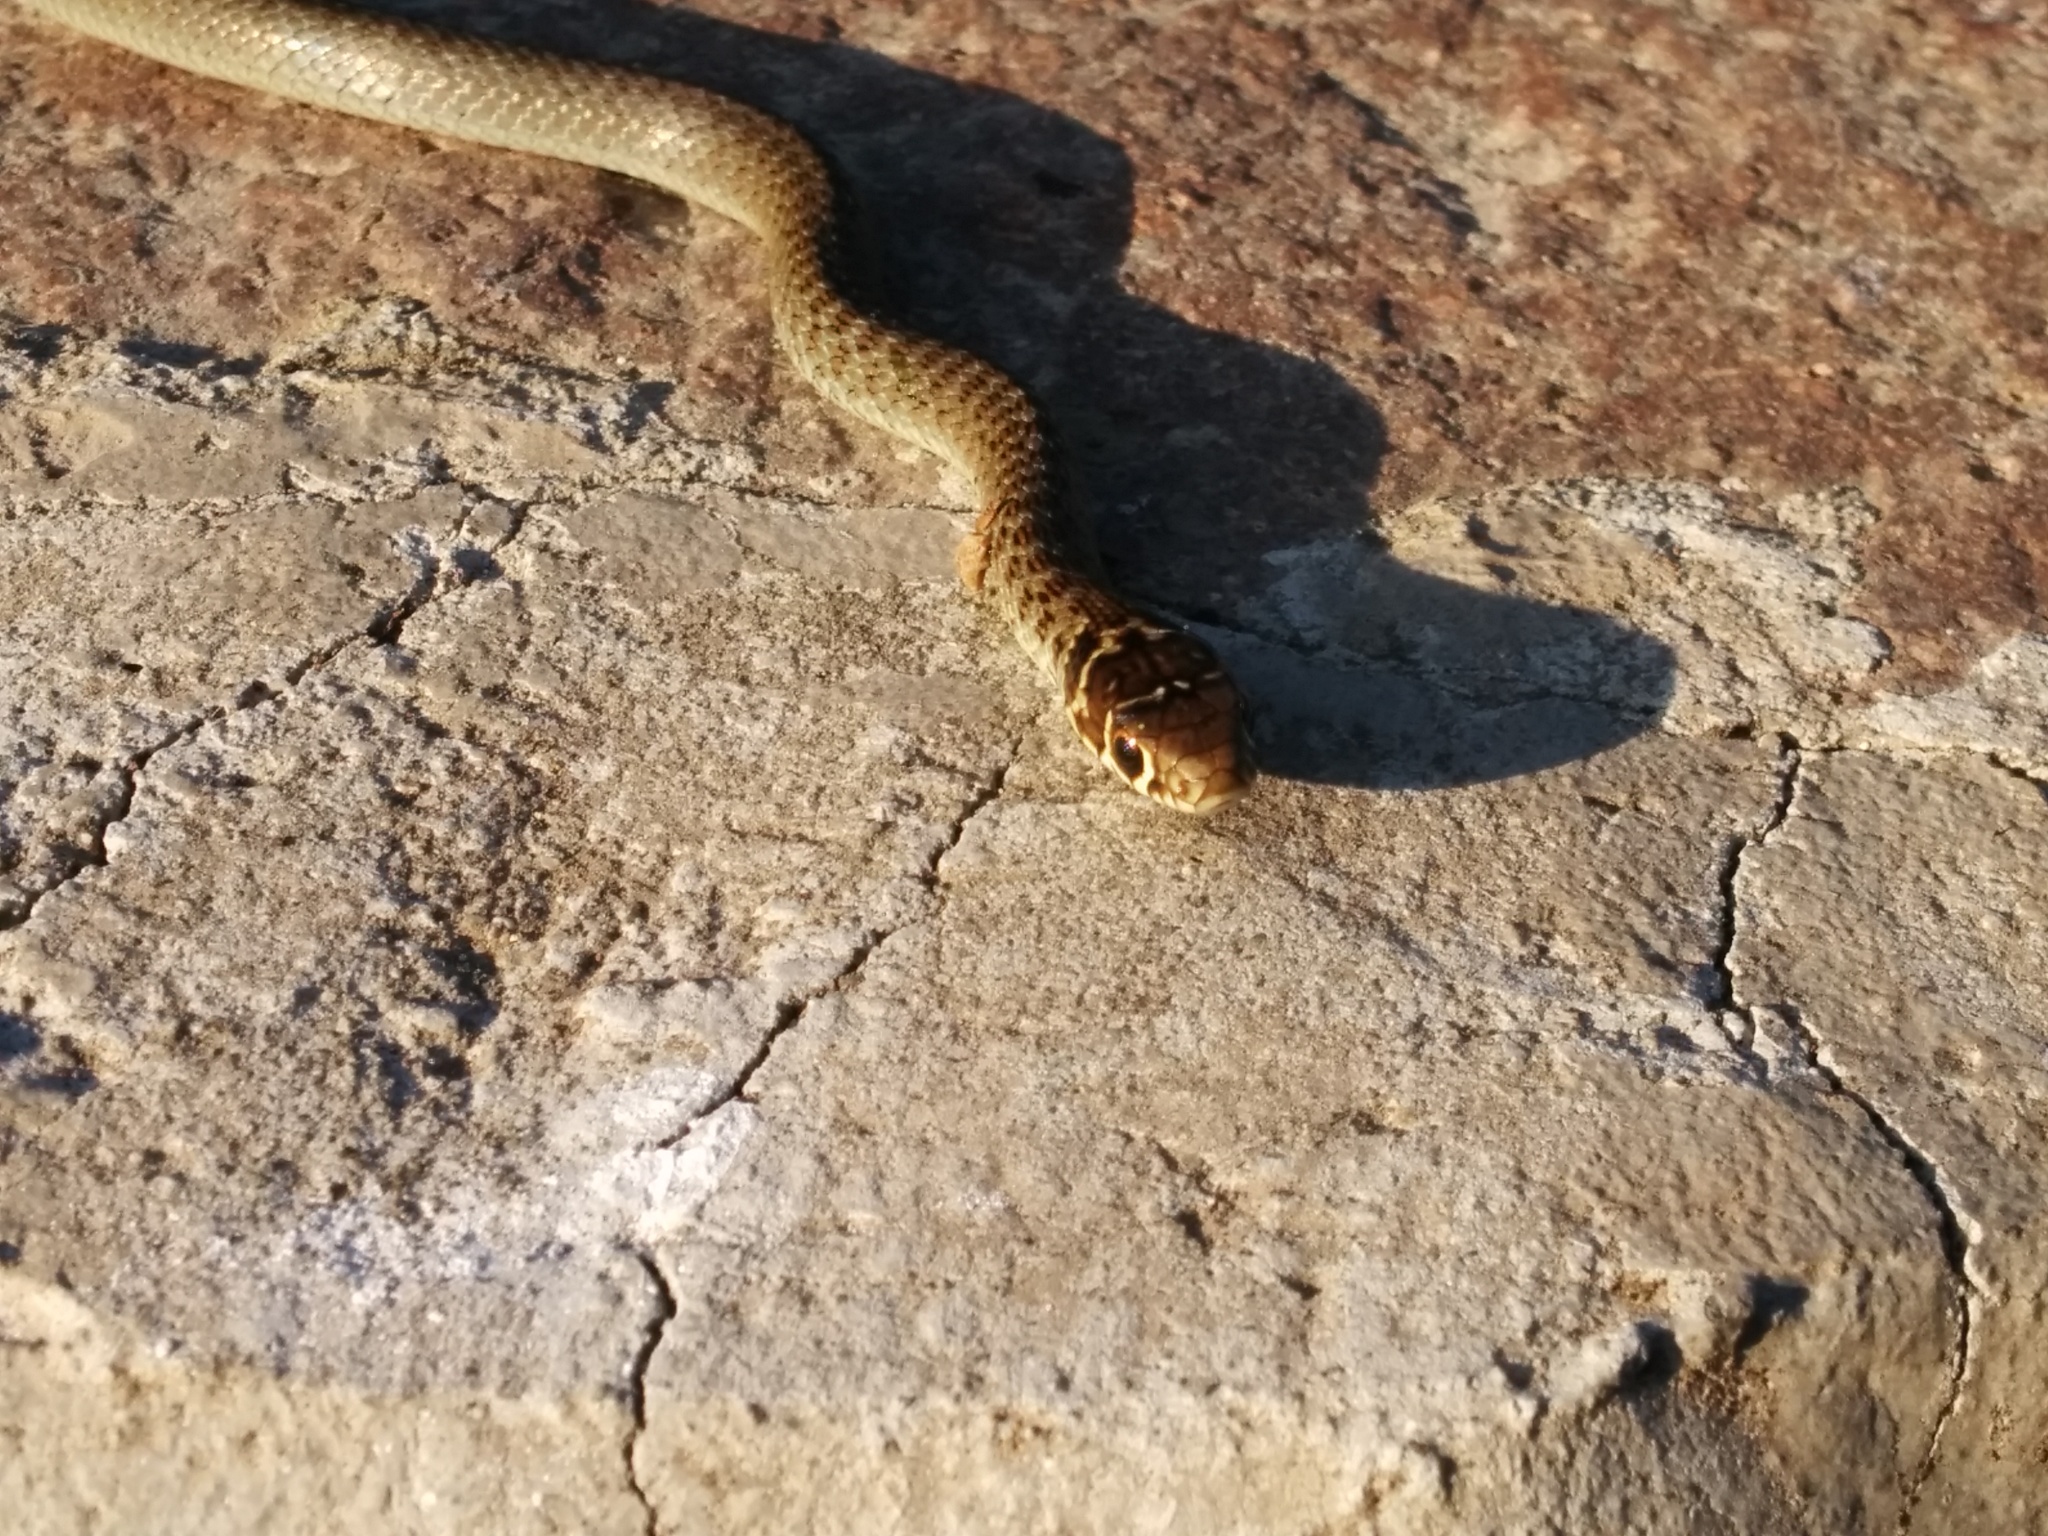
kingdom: Animalia
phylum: Chordata
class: Squamata
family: Colubridae
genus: Hierophis
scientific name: Hierophis viridiflavus
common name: Green whip snake
